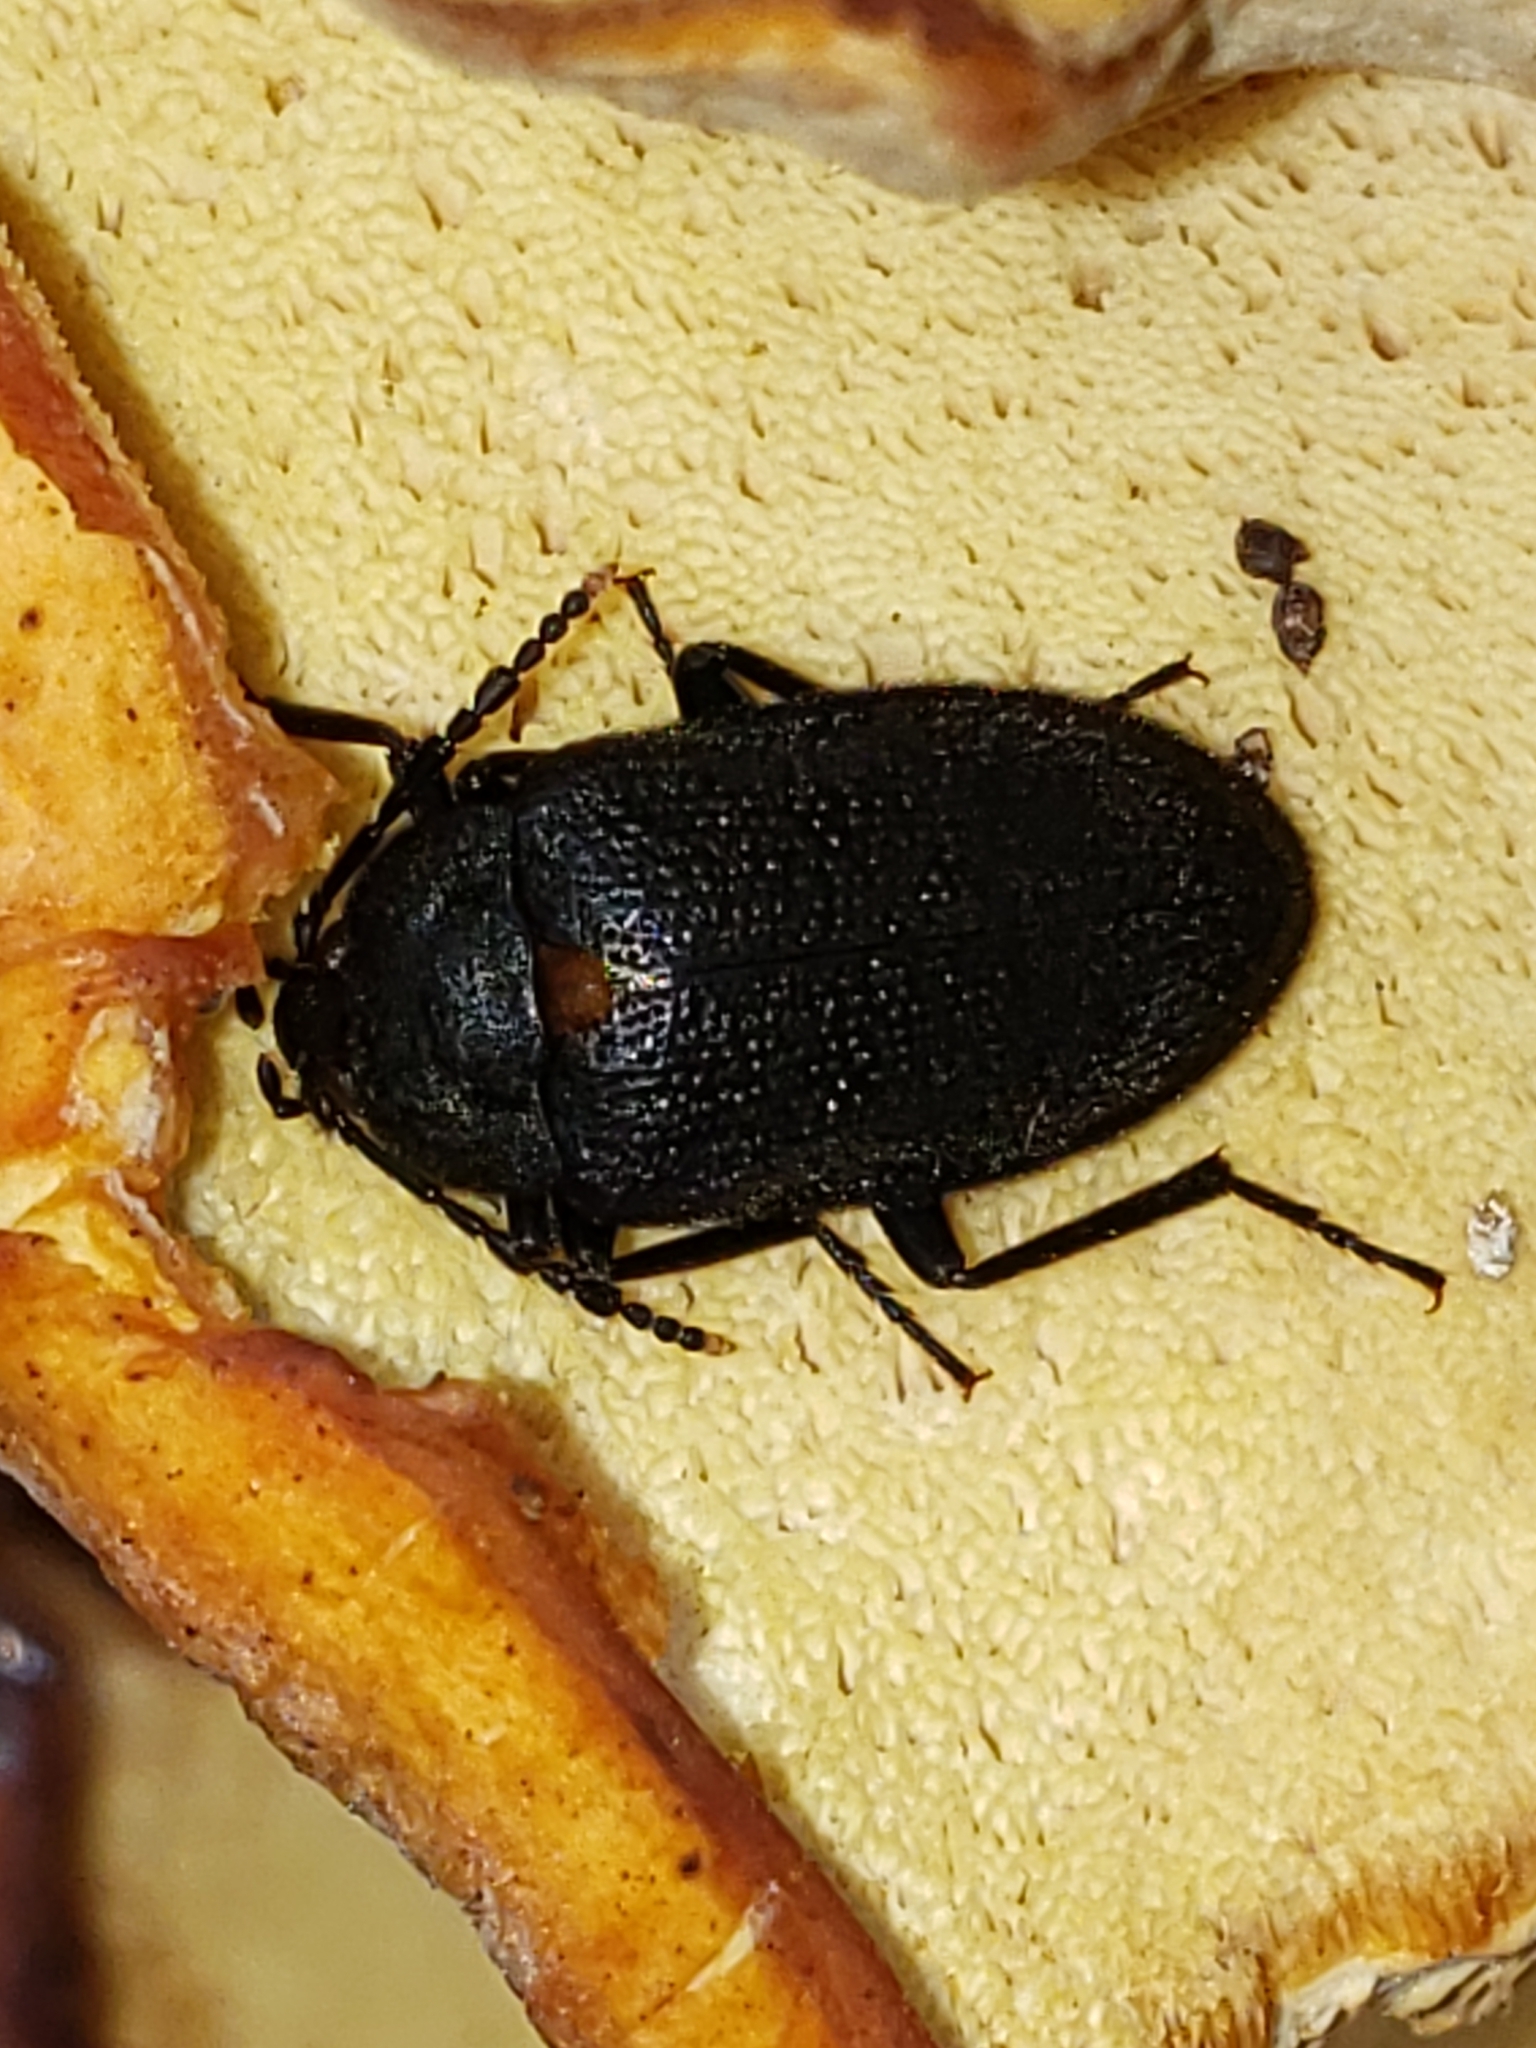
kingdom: Animalia
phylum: Arthropoda
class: Insecta
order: Coleoptera
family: Tetratomidae
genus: Penthe
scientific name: Penthe obliquata
